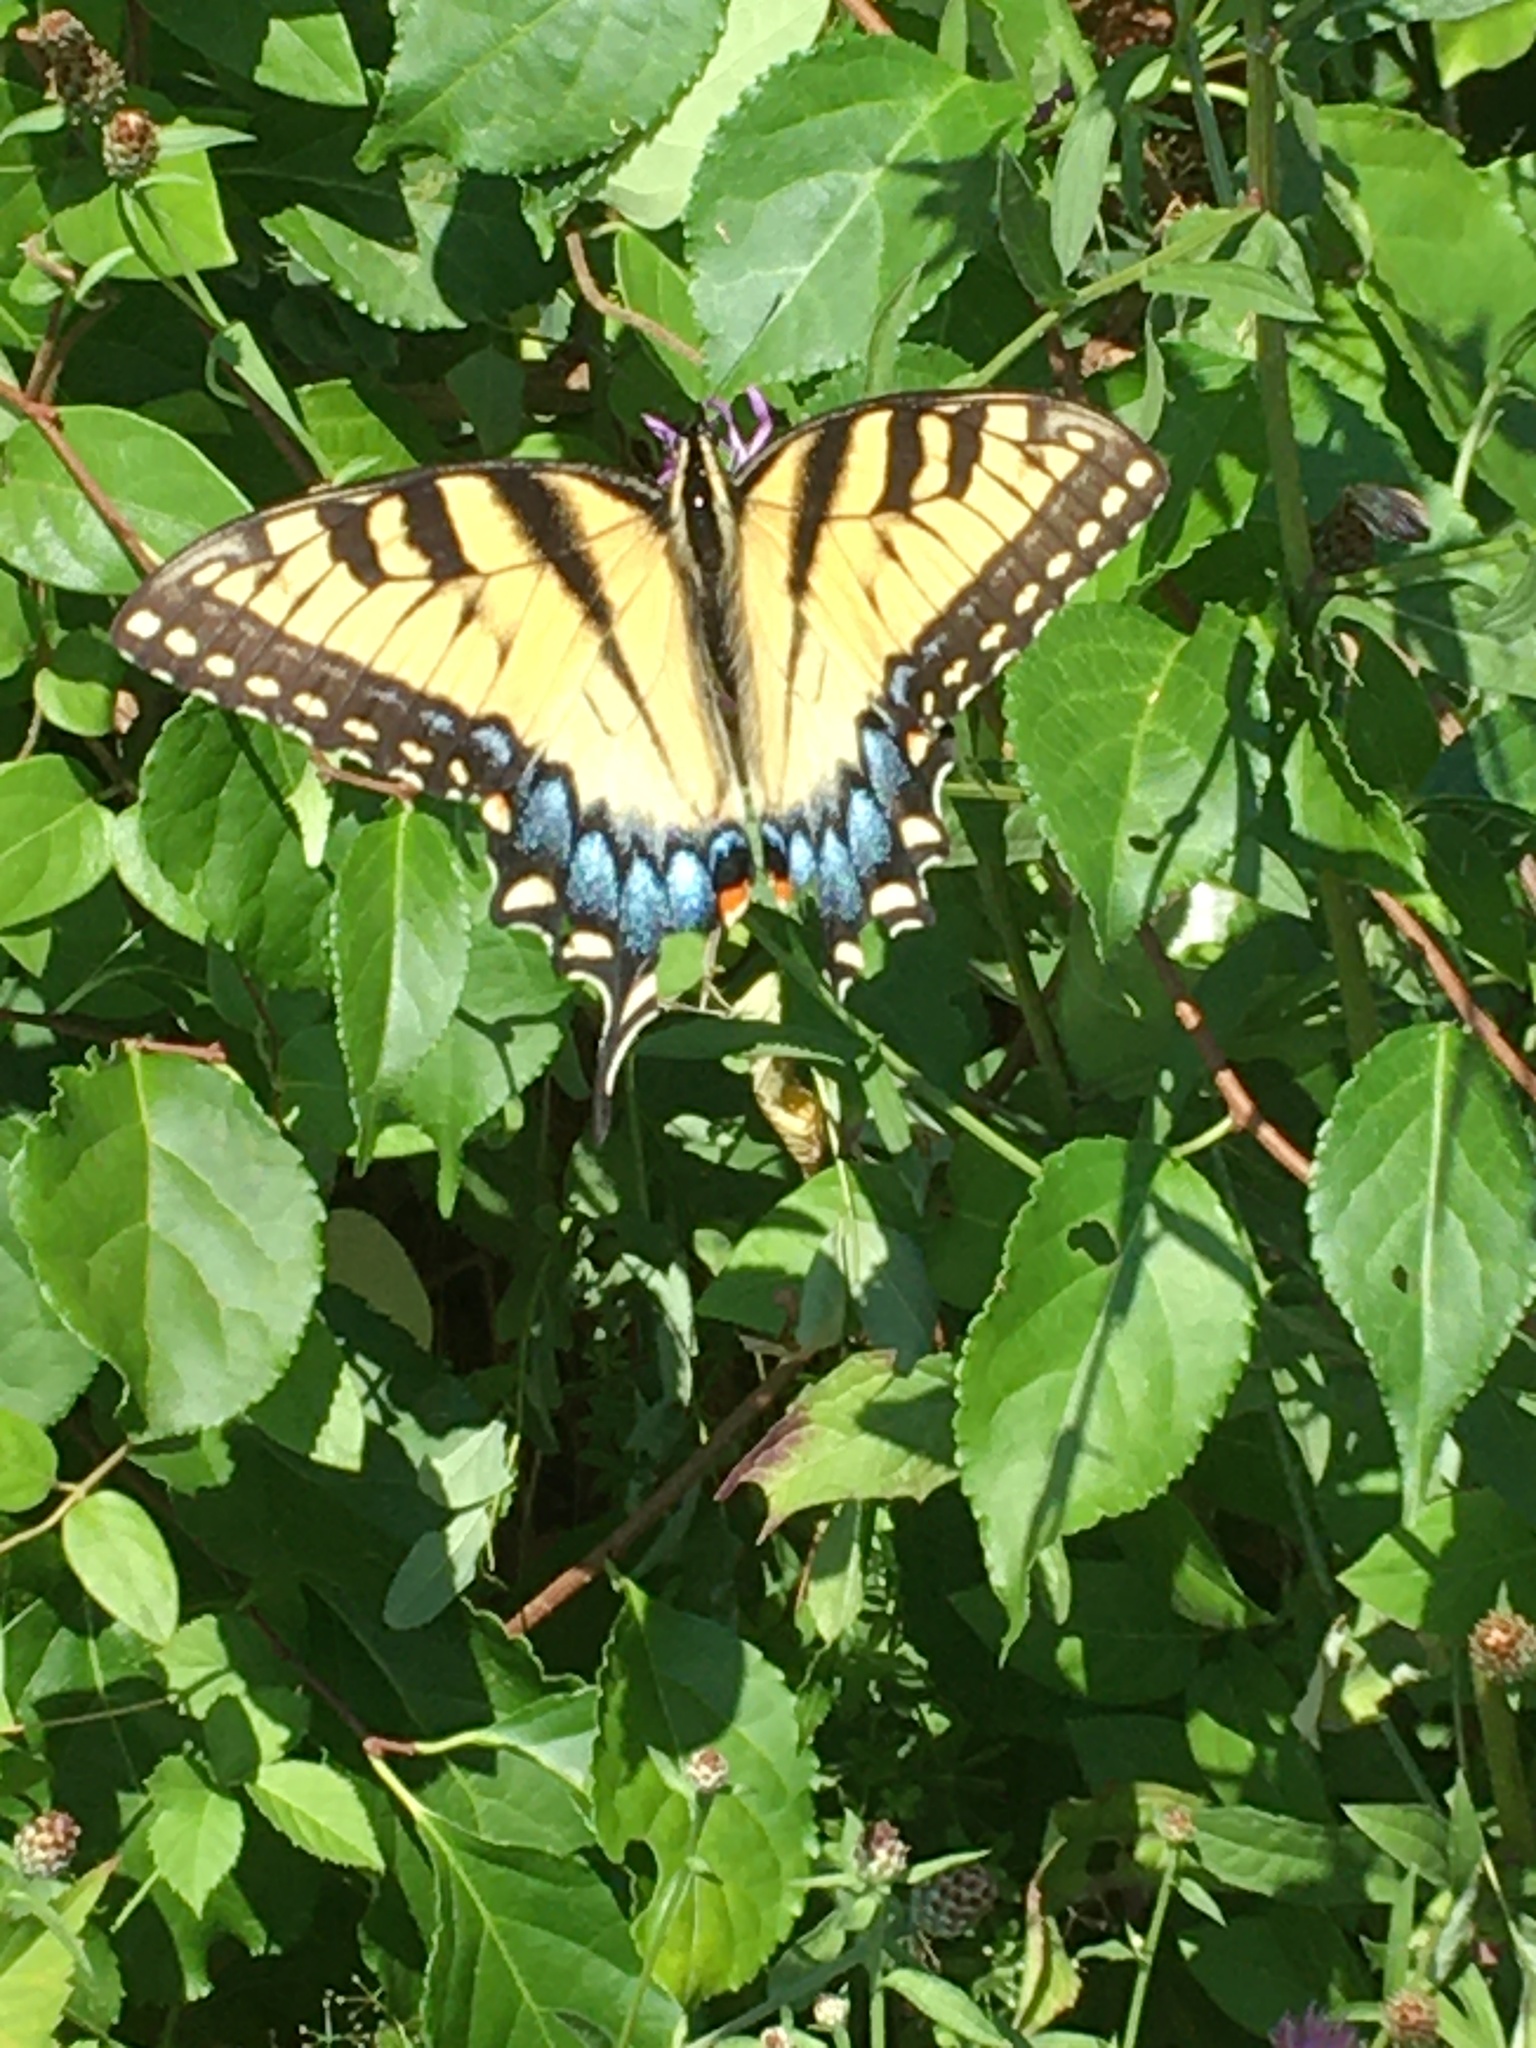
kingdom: Animalia
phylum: Arthropoda
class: Insecta
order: Lepidoptera
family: Papilionidae
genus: Papilio
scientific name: Papilio glaucus
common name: Tiger swallowtail
